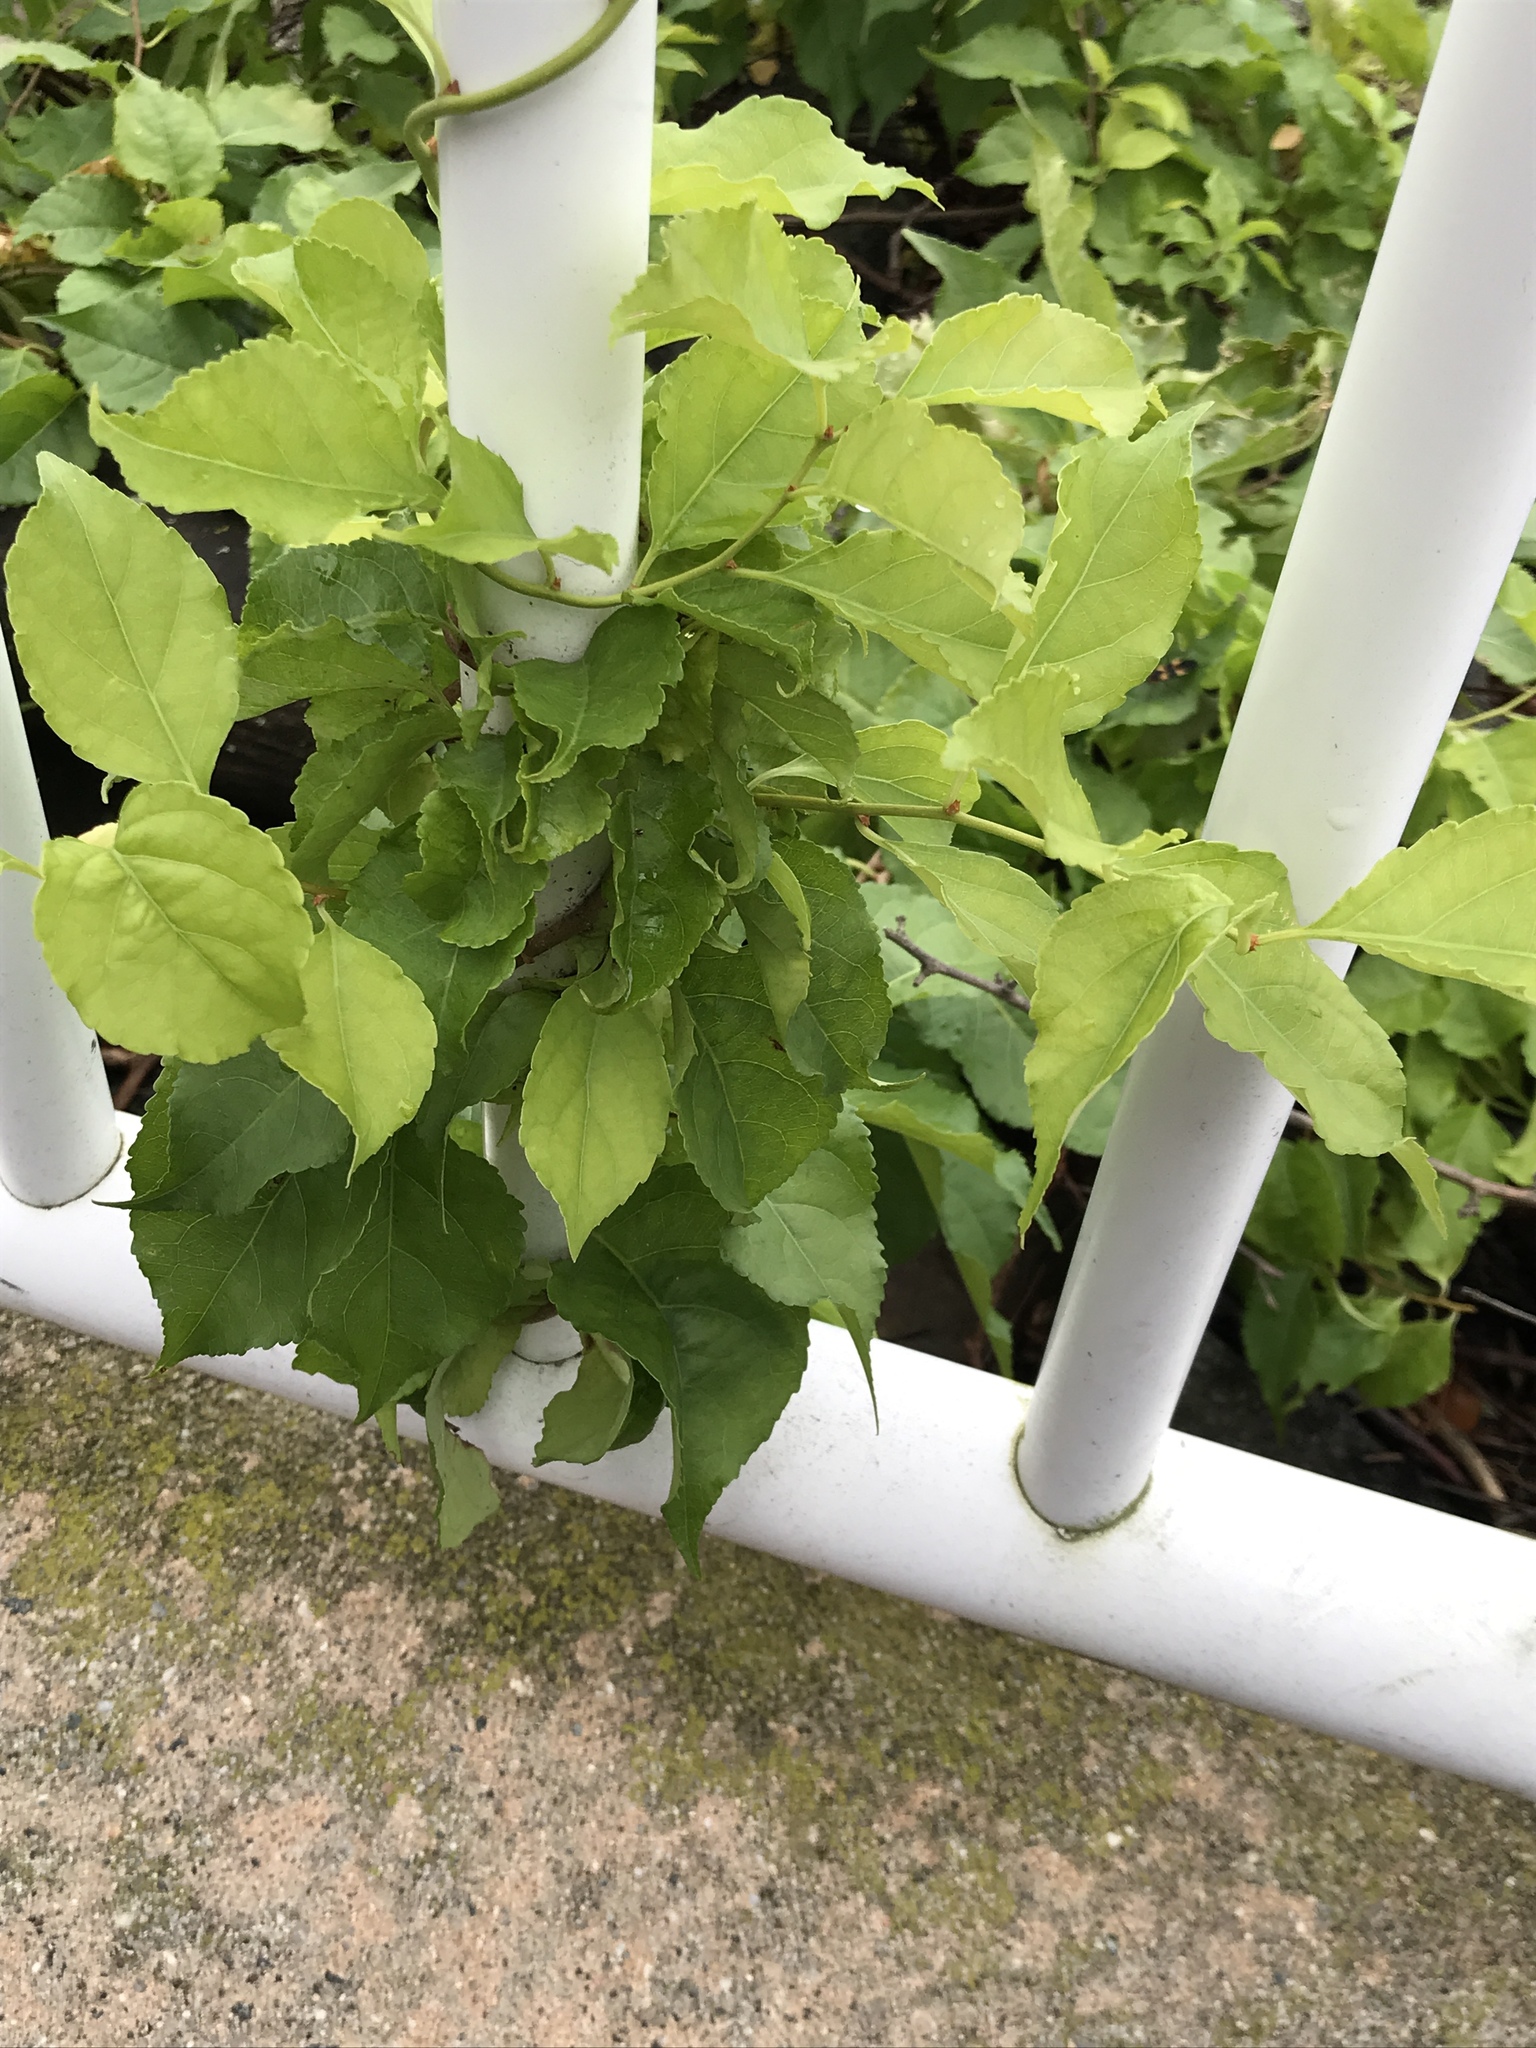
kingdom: Plantae
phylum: Tracheophyta
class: Magnoliopsida
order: Celastrales
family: Celastraceae
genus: Celastrus
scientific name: Celastrus orbiculatus
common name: Oriental bittersweet
